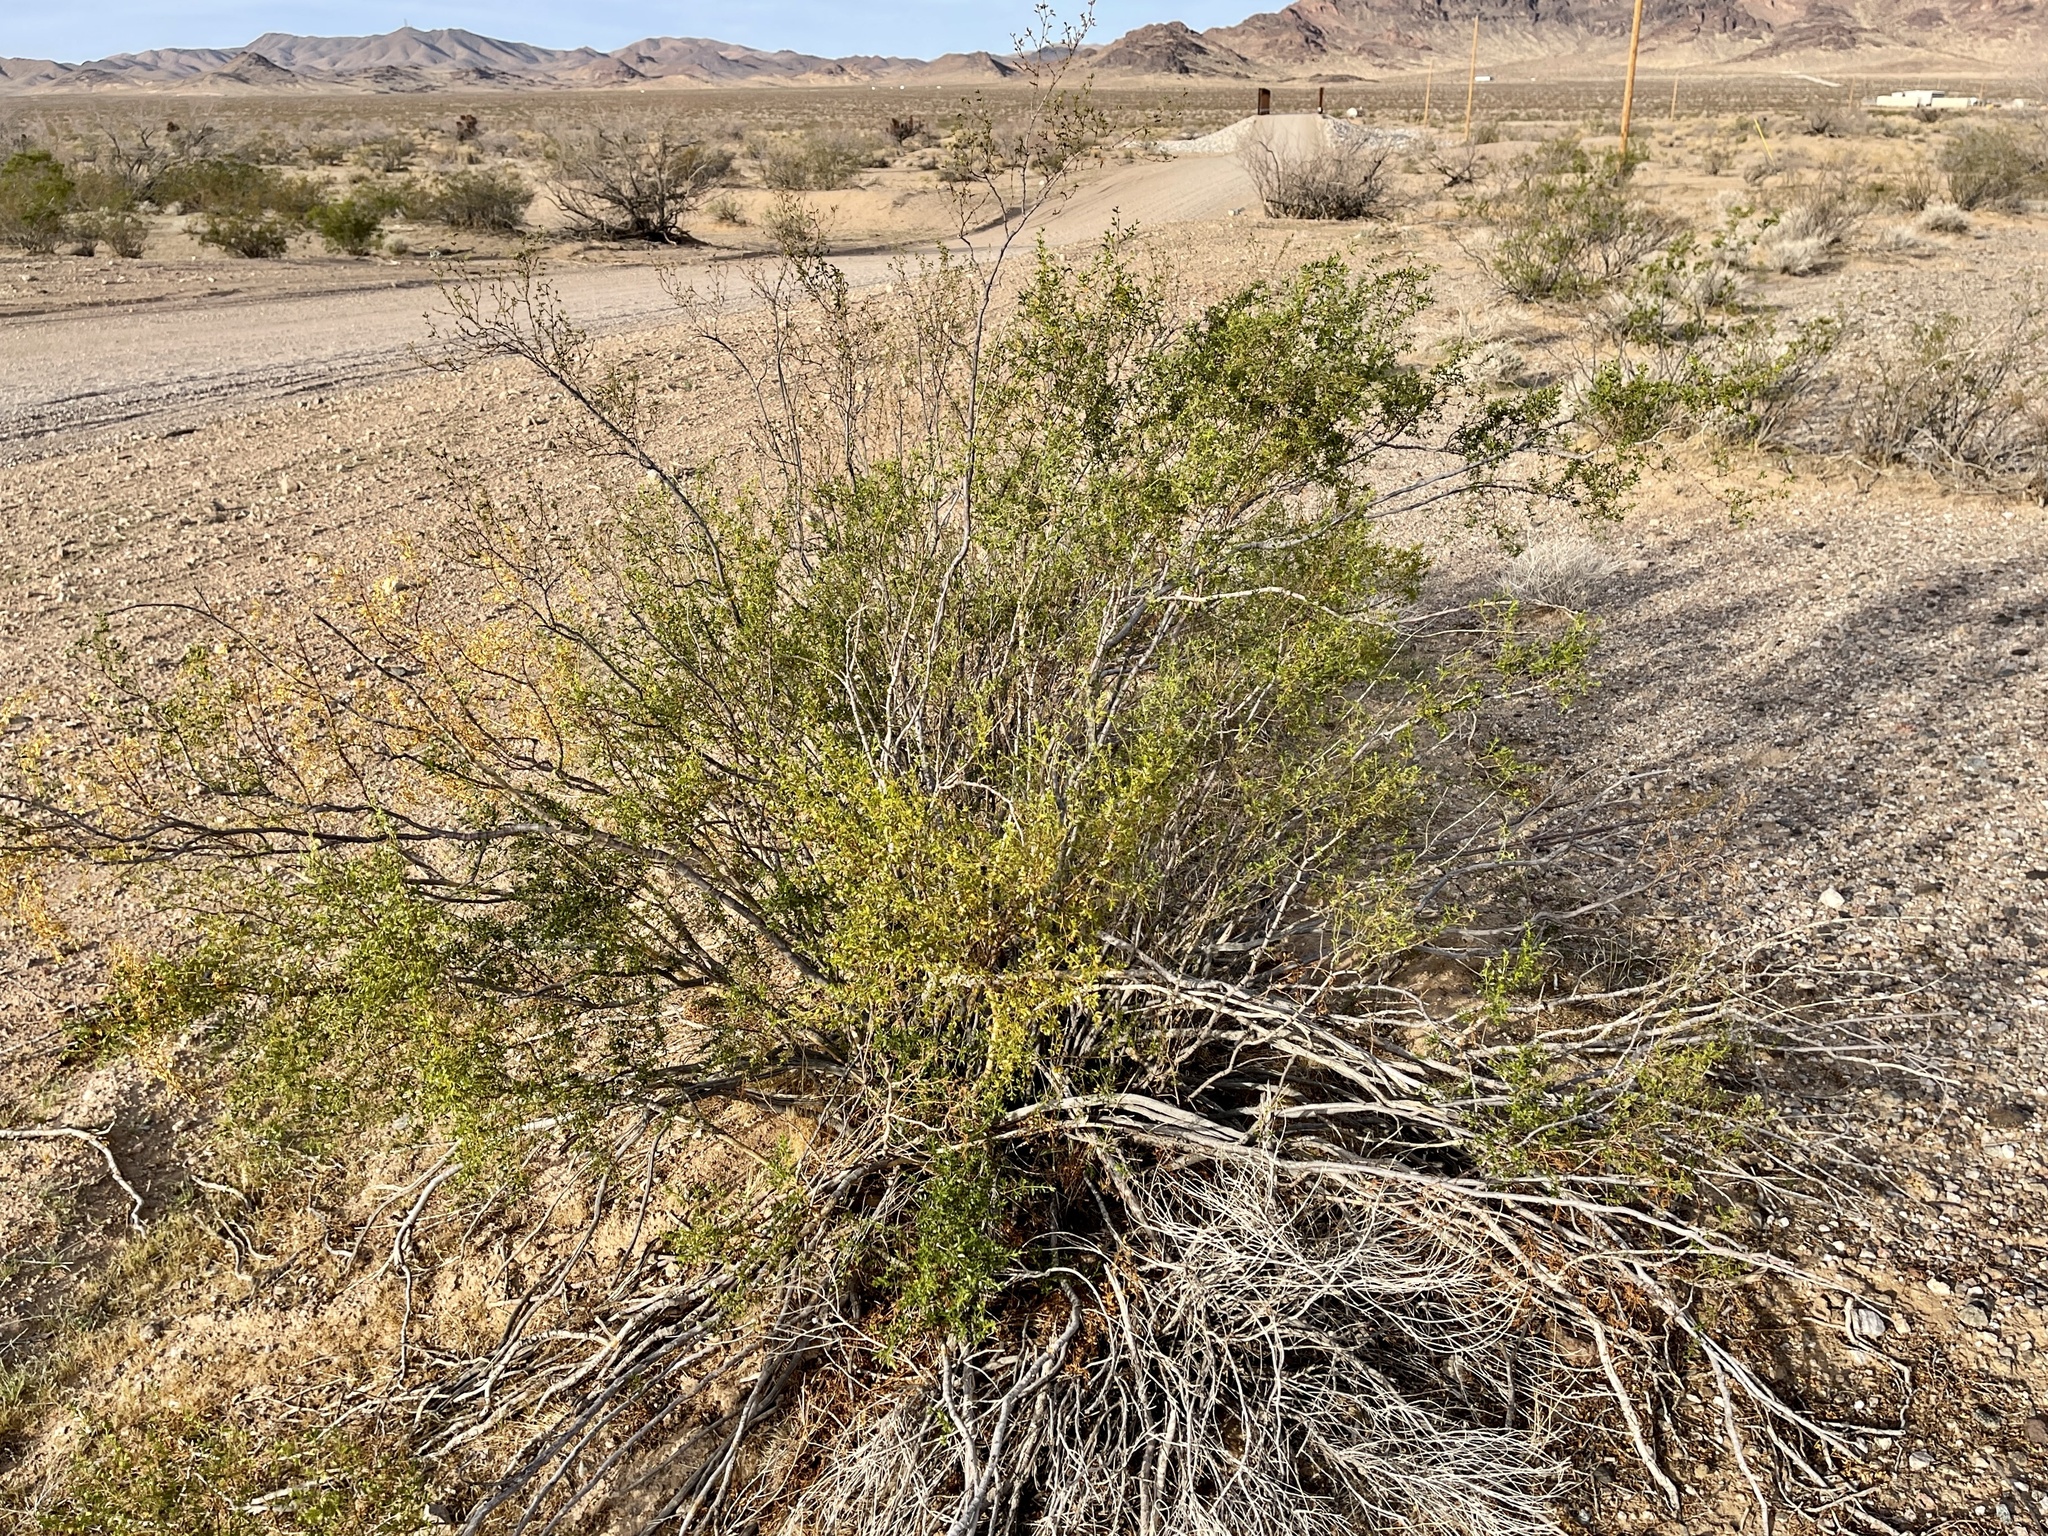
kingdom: Plantae
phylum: Tracheophyta
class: Magnoliopsida
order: Zygophyllales
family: Zygophyllaceae
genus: Larrea
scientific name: Larrea tridentata
